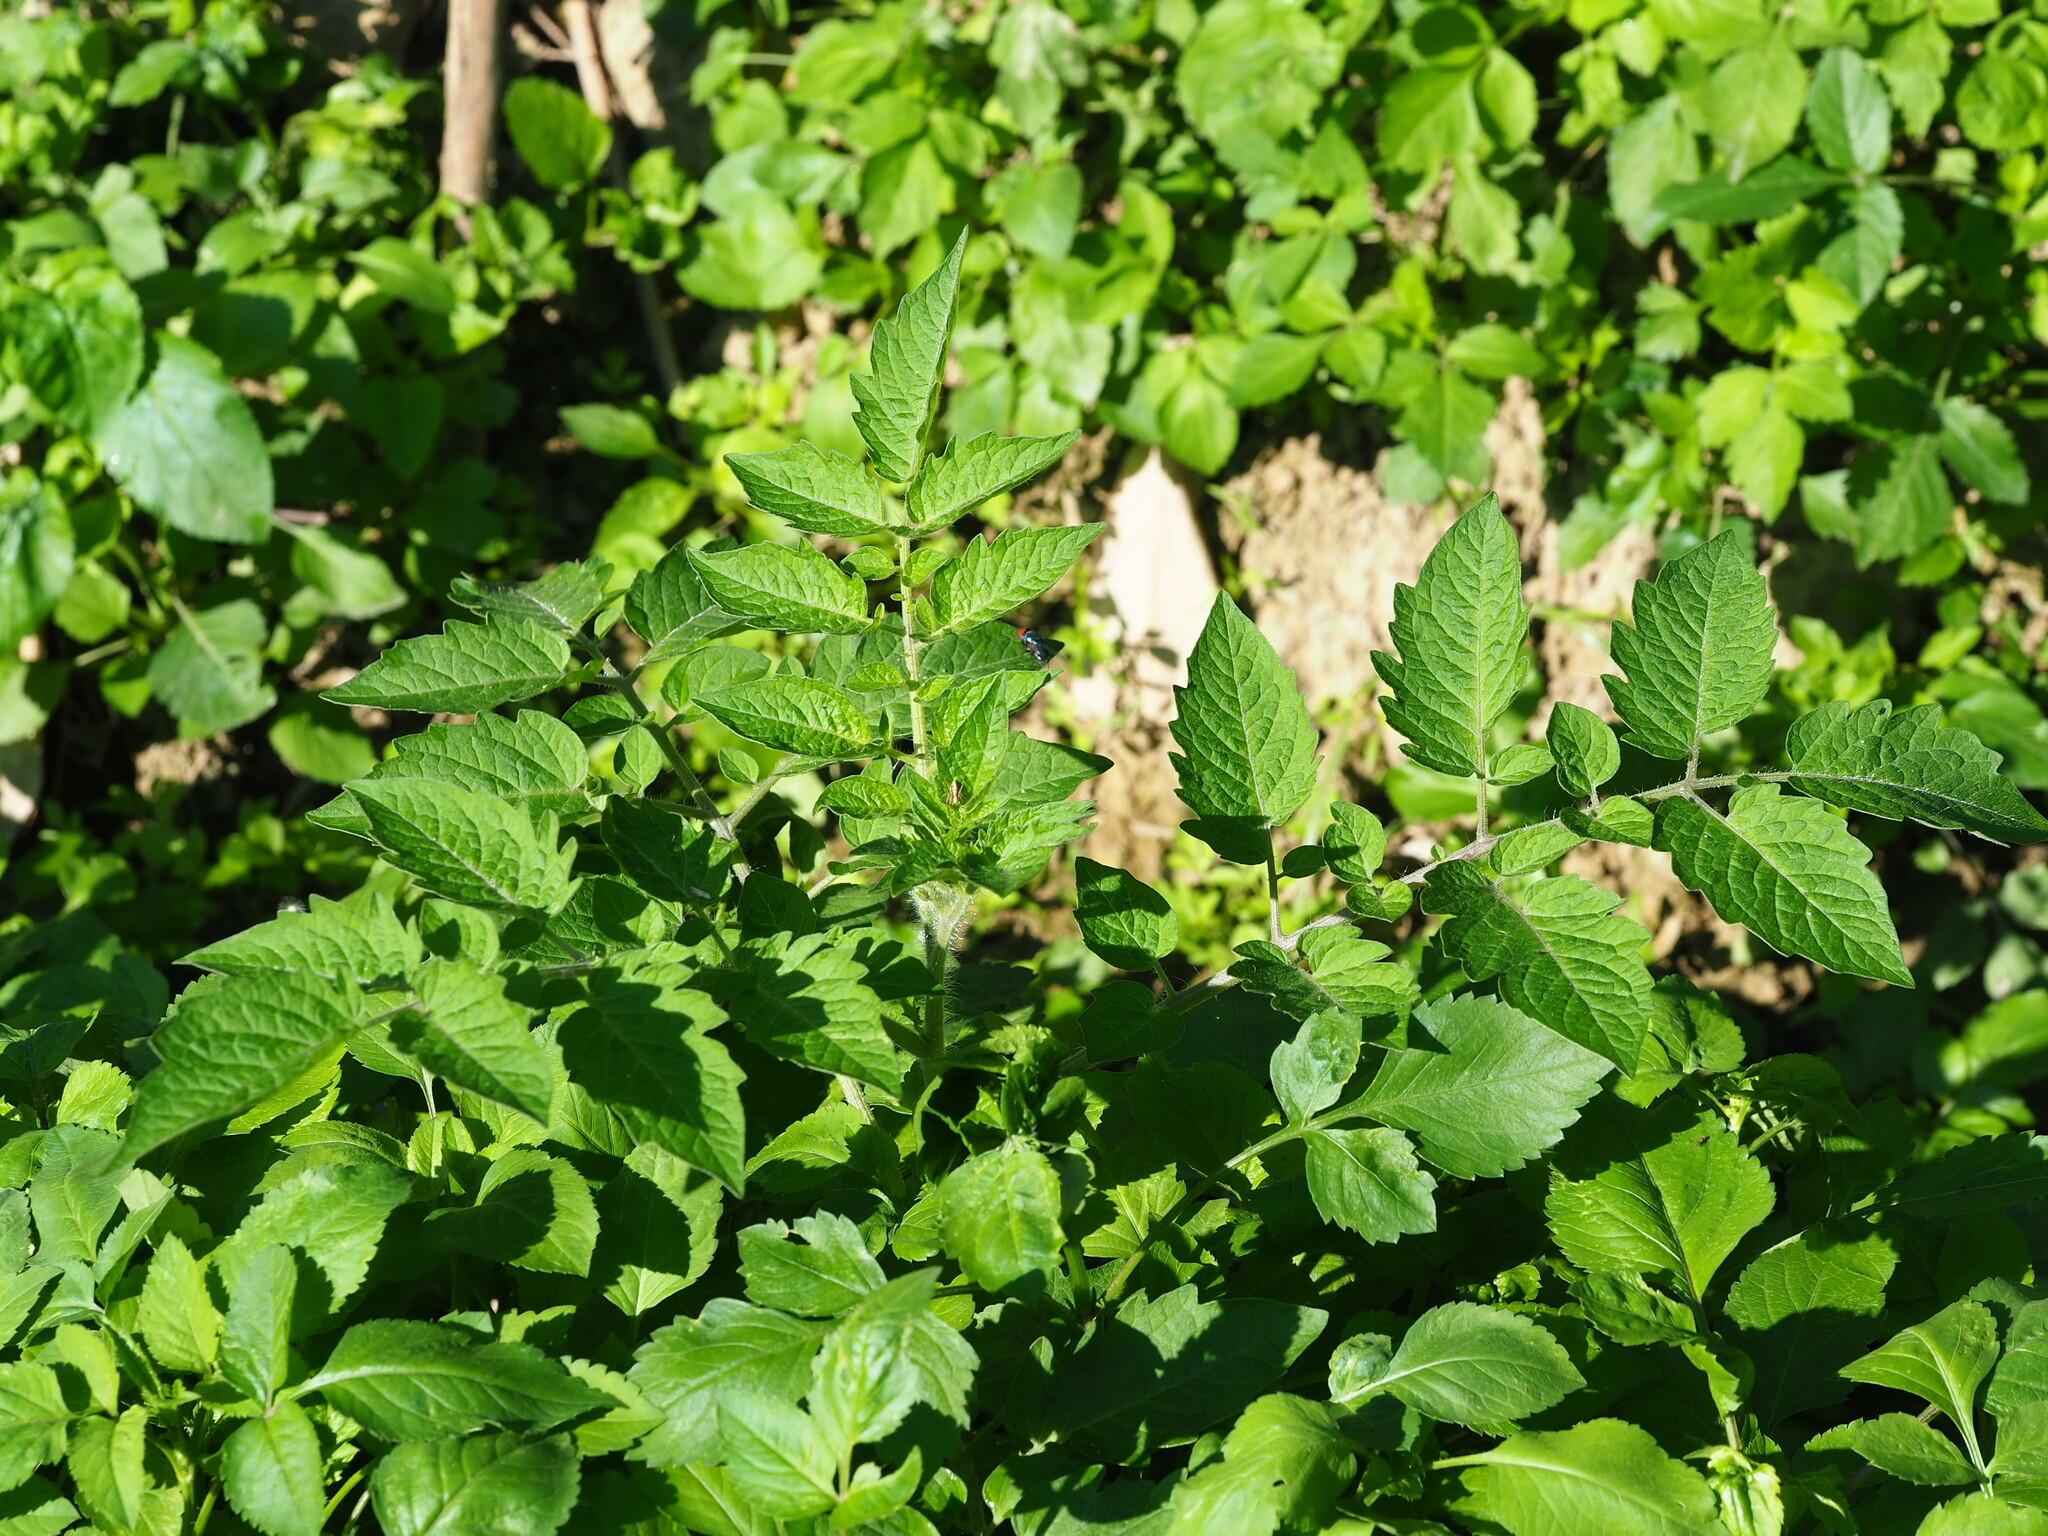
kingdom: Plantae
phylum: Tracheophyta
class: Magnoliopsida
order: Solanales
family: Solanaceae
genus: Solanum
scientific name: Solanum lycopersicum
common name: Garden tomato
